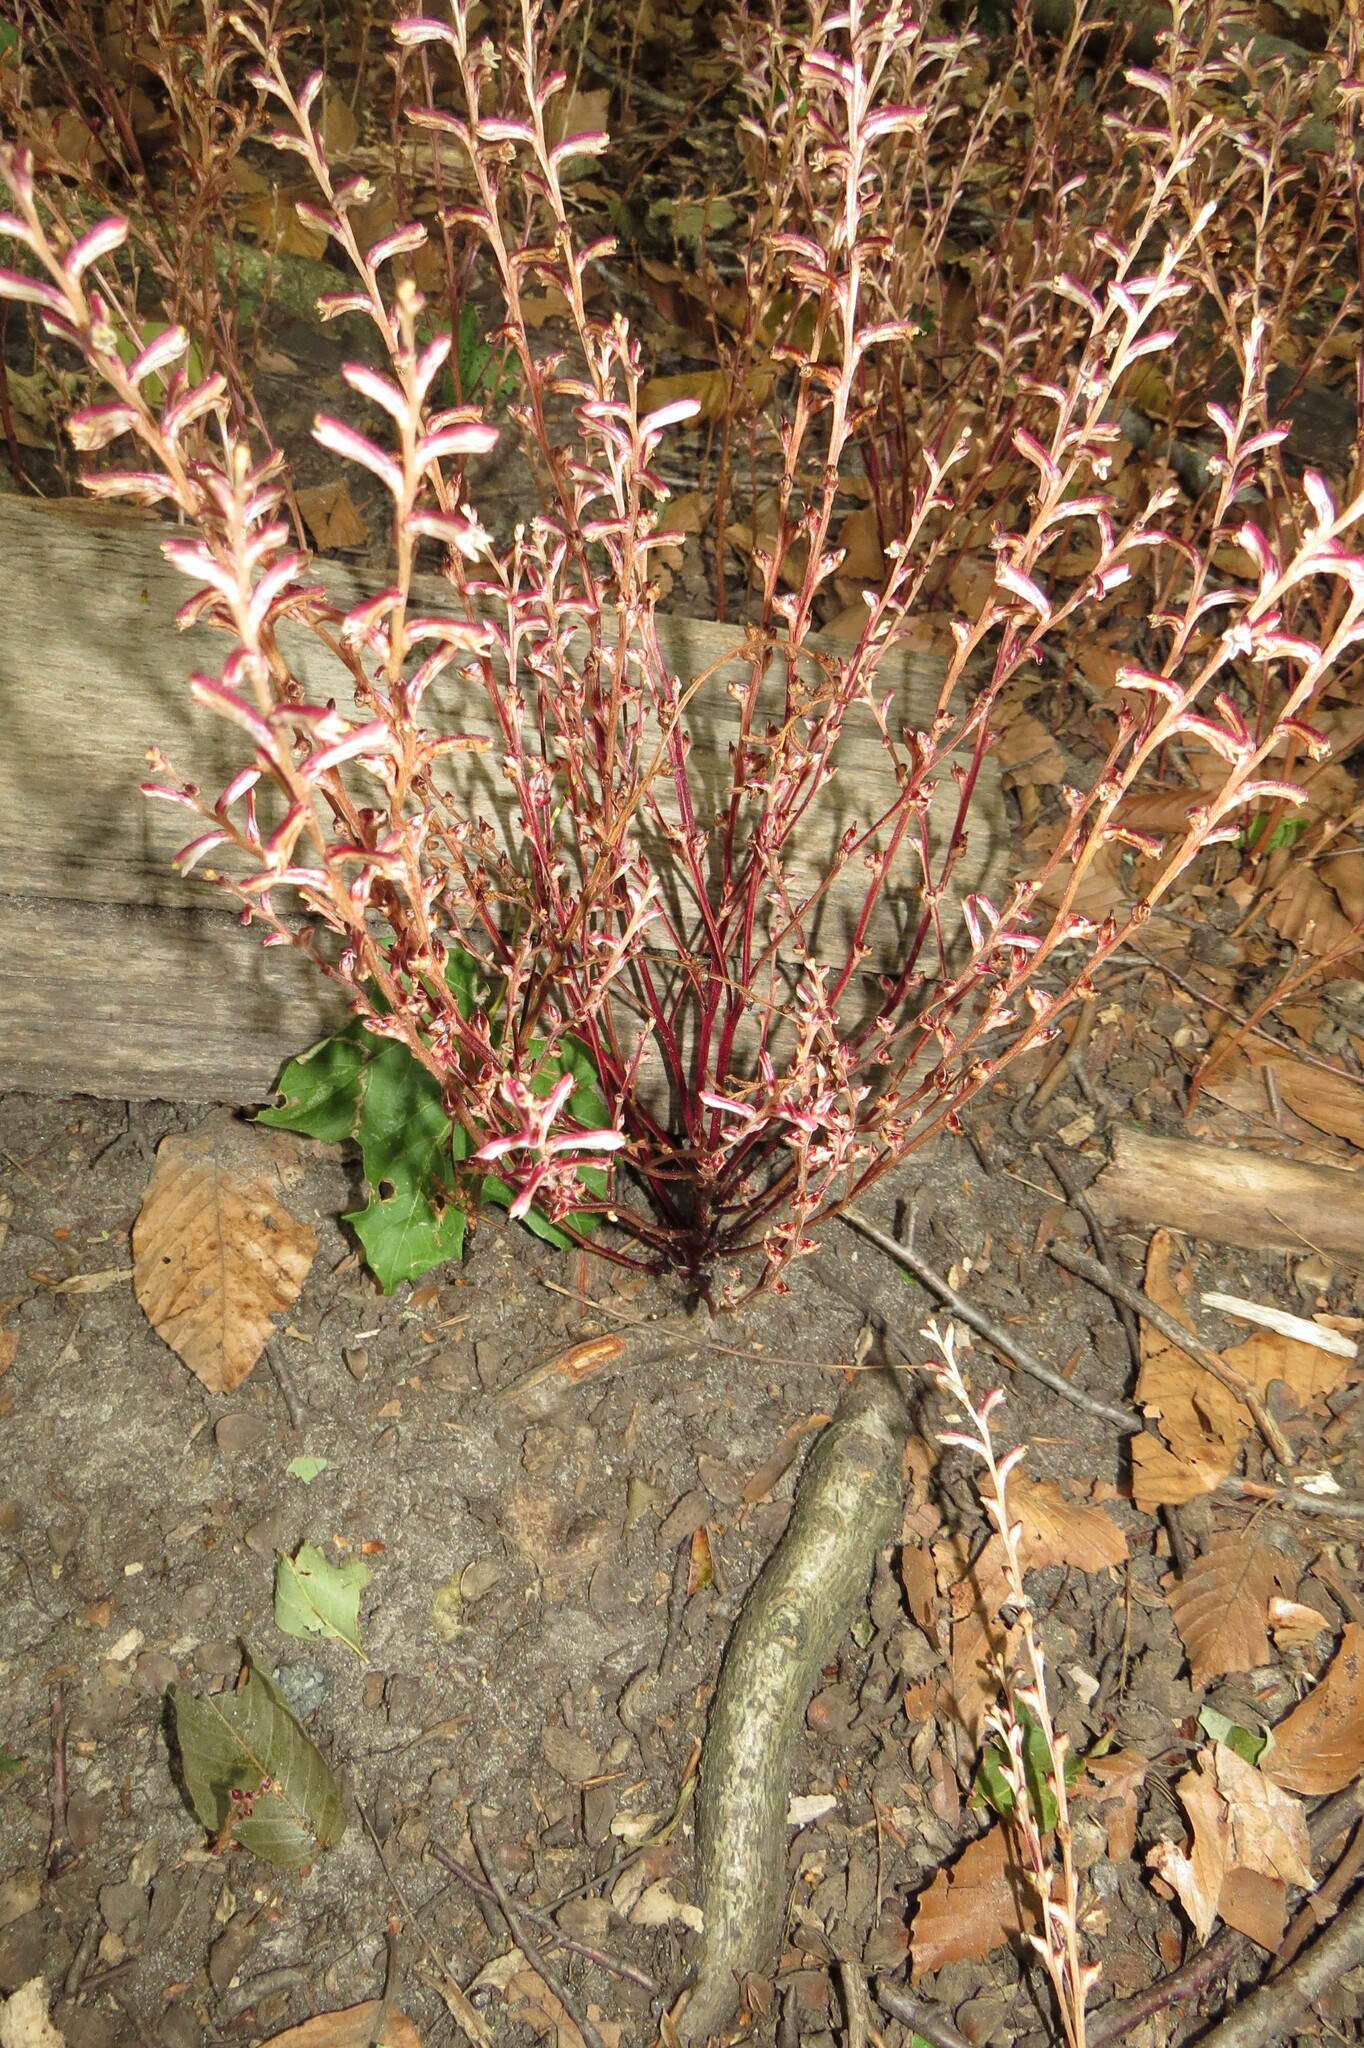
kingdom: Plantae
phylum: Tracheophyta
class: Magnoliopsida
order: Lamiales
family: Orobanchaceae
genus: Epifagus
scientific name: Epifagus virginiana
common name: Beechdrops
